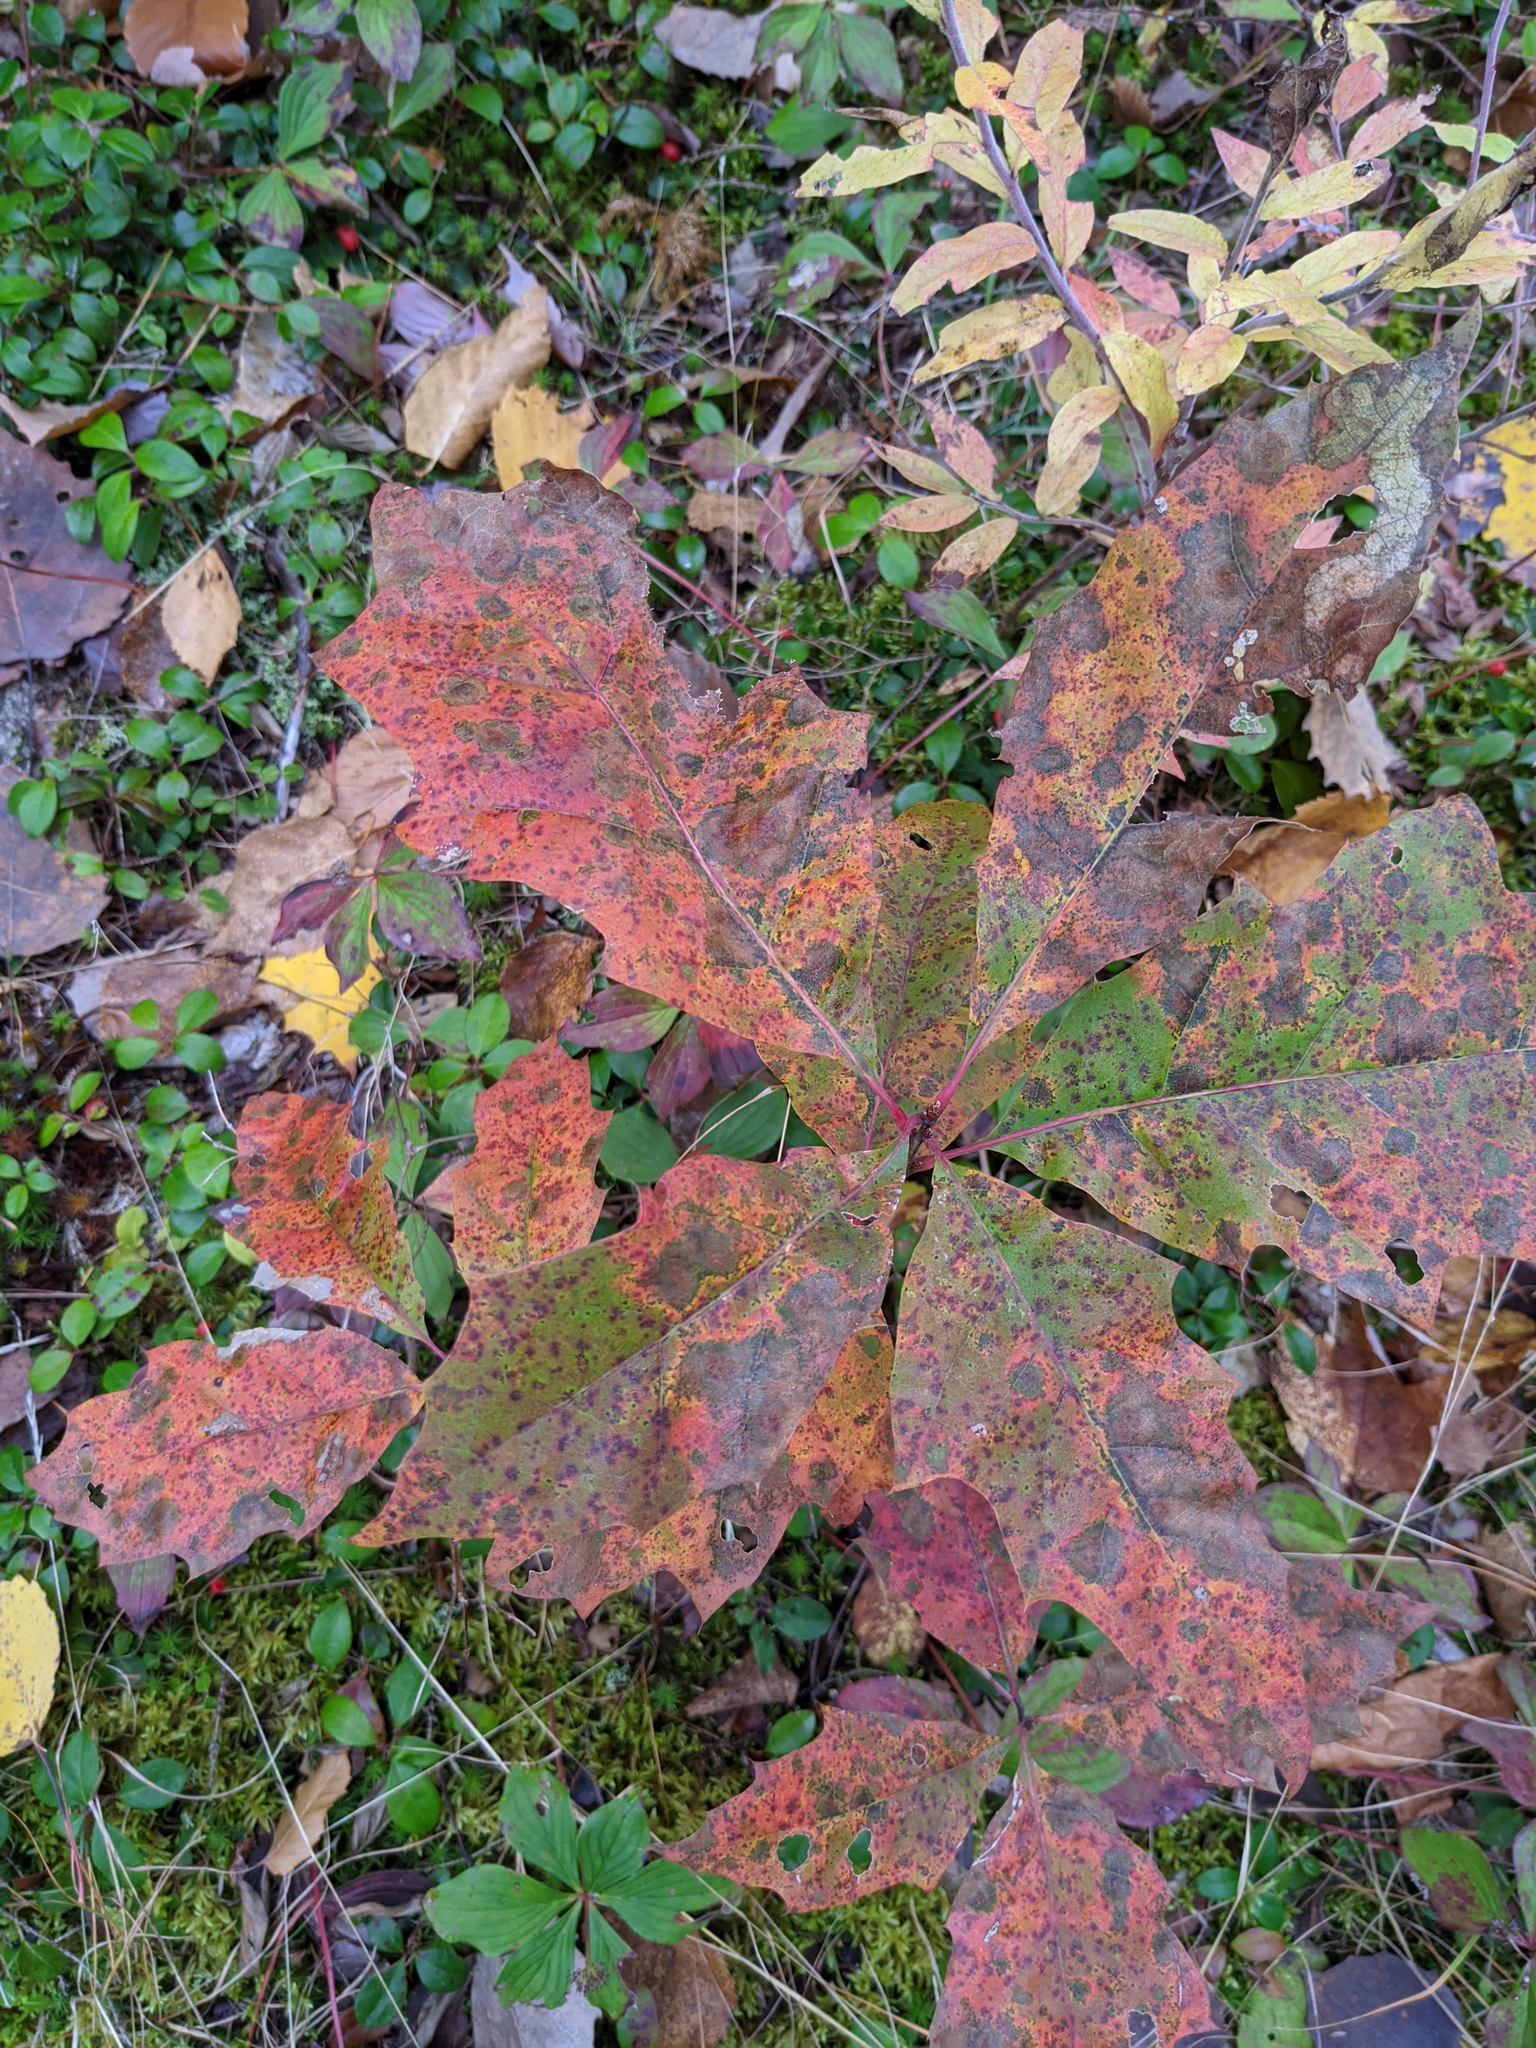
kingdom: Plantae
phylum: Tracheophyta
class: Magnoliopsida
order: Fagales
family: Fagaceae
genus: Quercus
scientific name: Quercus rubra
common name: Red oak
